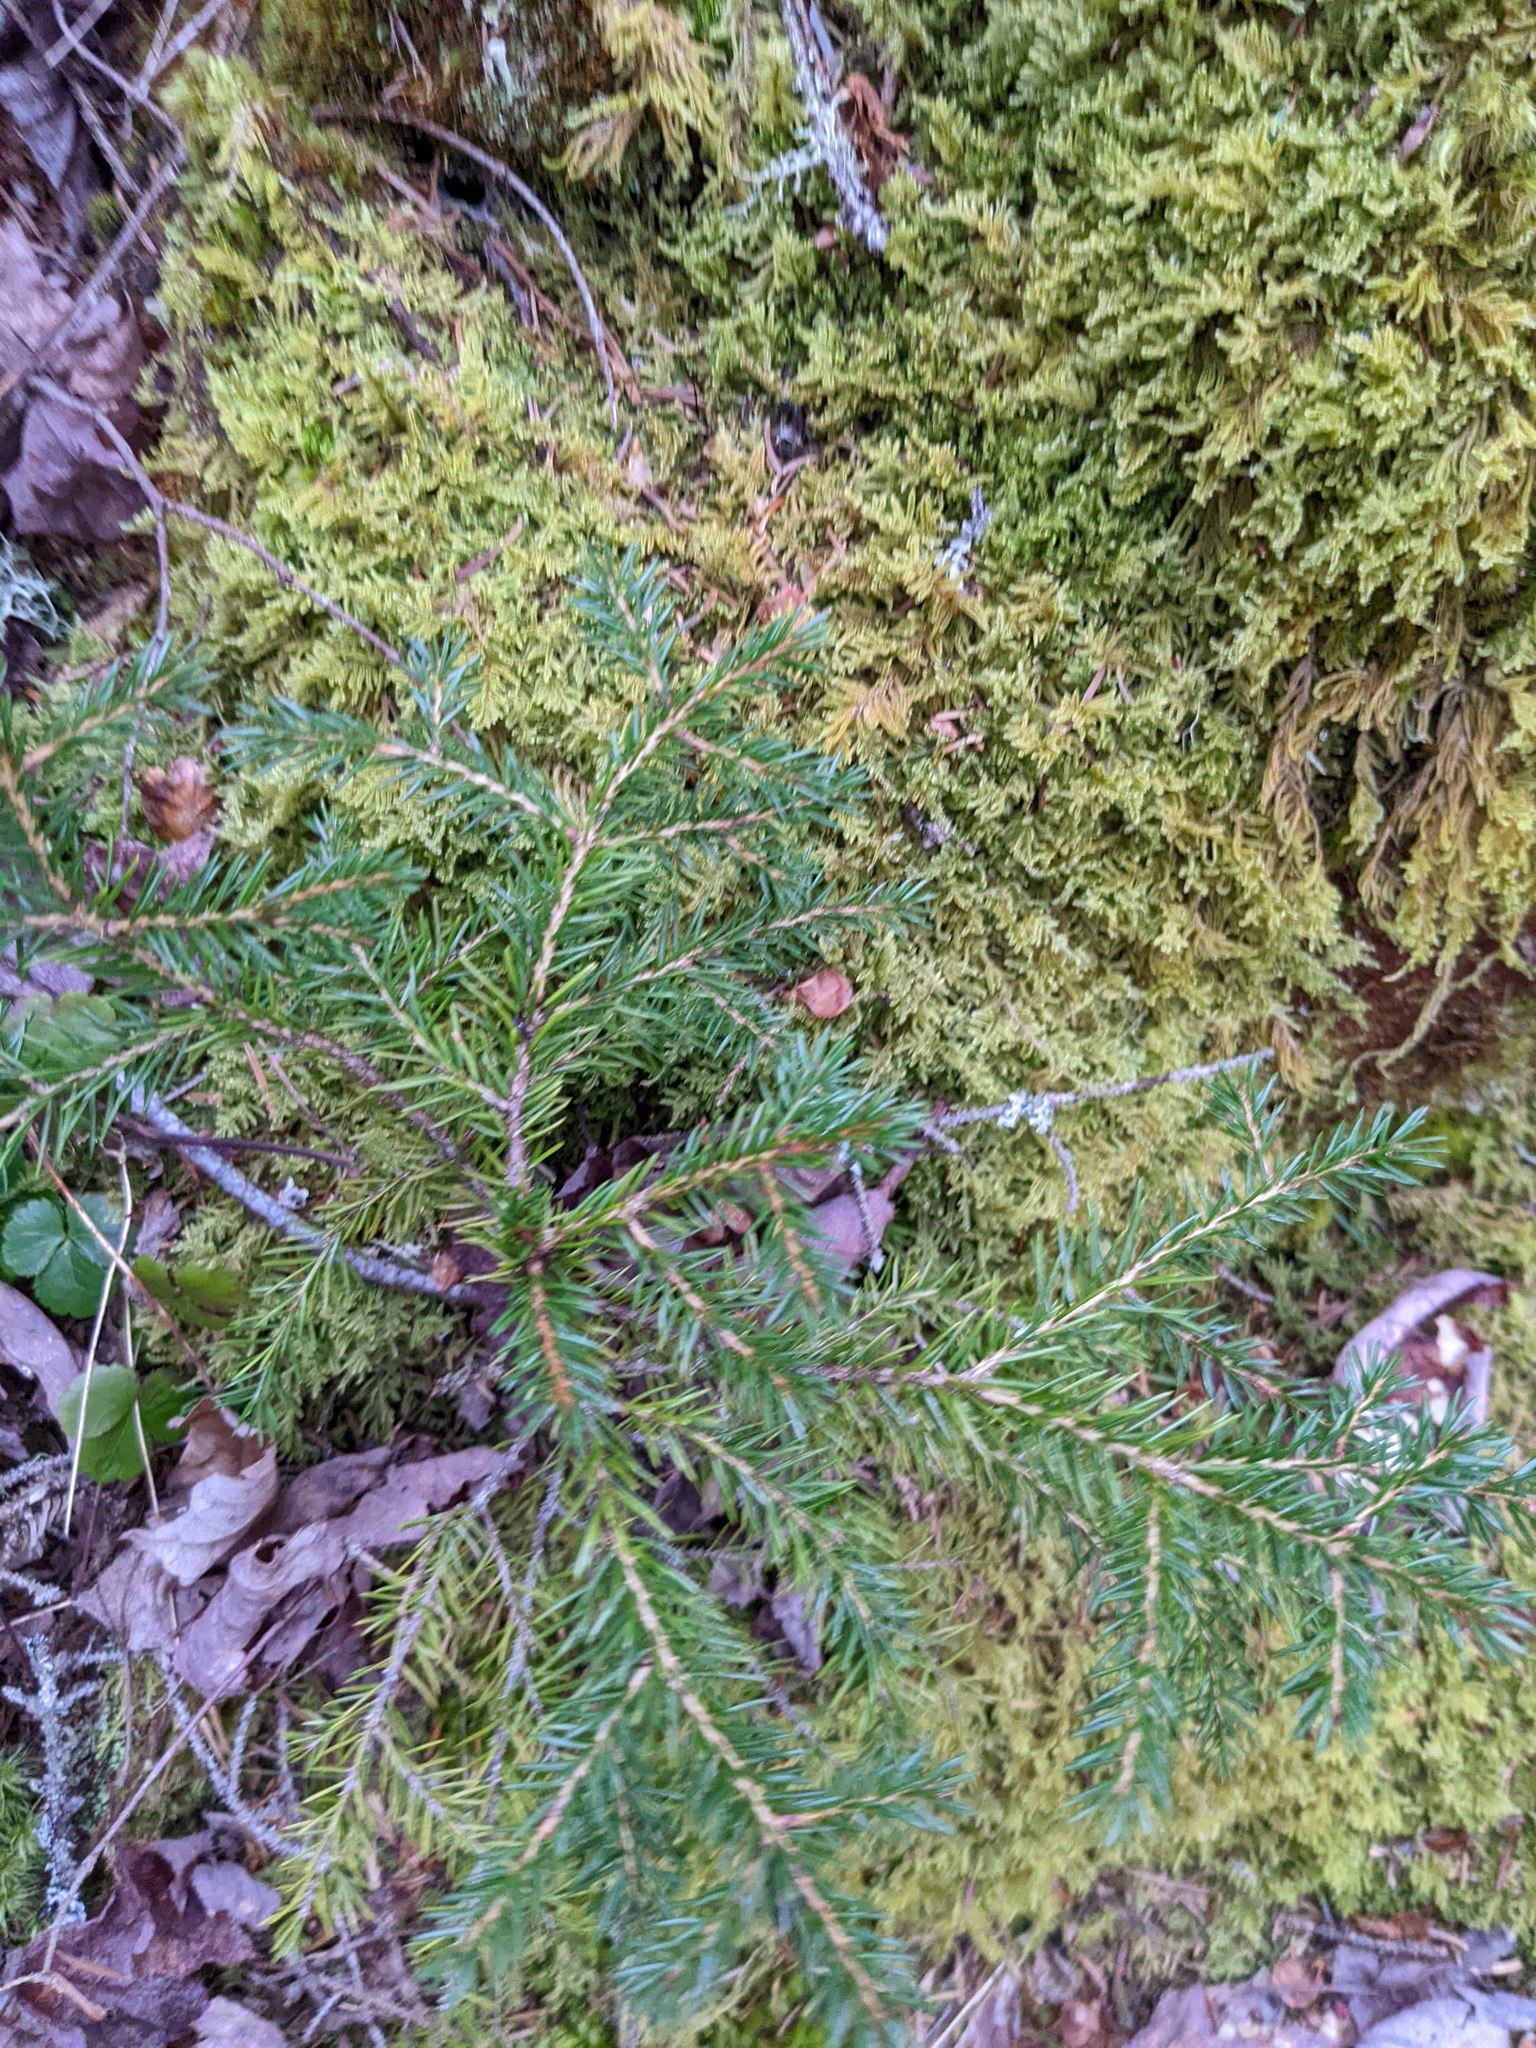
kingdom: Plantae
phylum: Tracheophyta
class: Pinopsida
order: Pinales
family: Pinaceae
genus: Picea
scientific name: Picea rubens
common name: Red spruce
